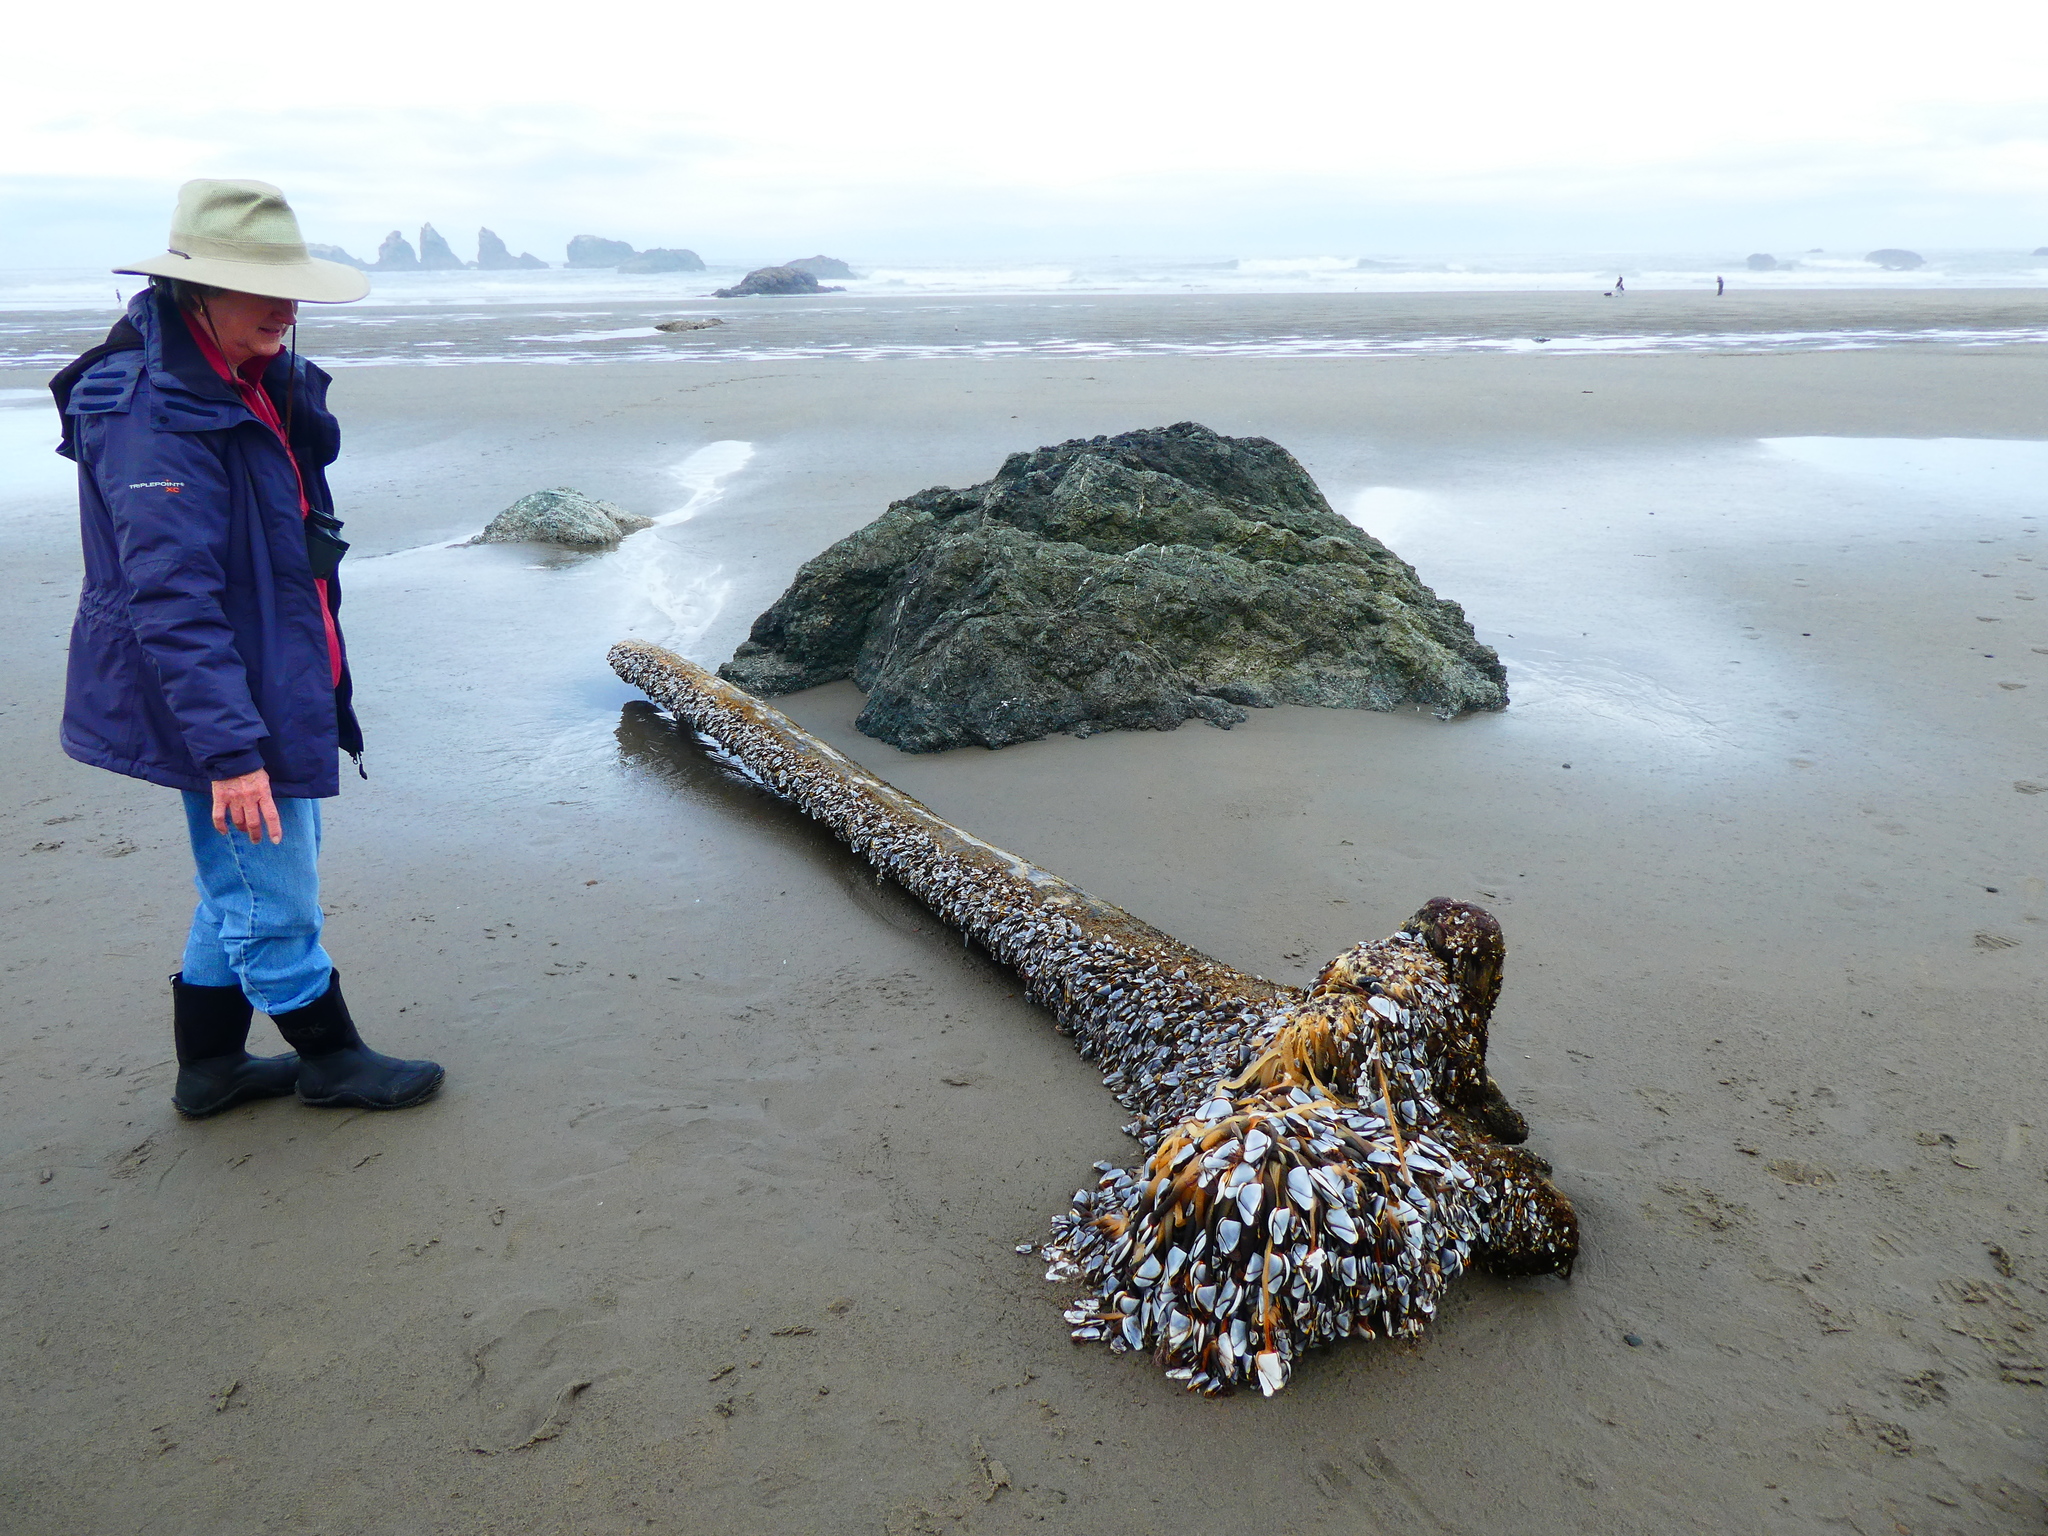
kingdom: Animalia
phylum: Arthropoda
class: Maxillopoda
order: Pedunculata
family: Lepadidae
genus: Lepas
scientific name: Lepas anatifera
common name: Common goose barnacle
